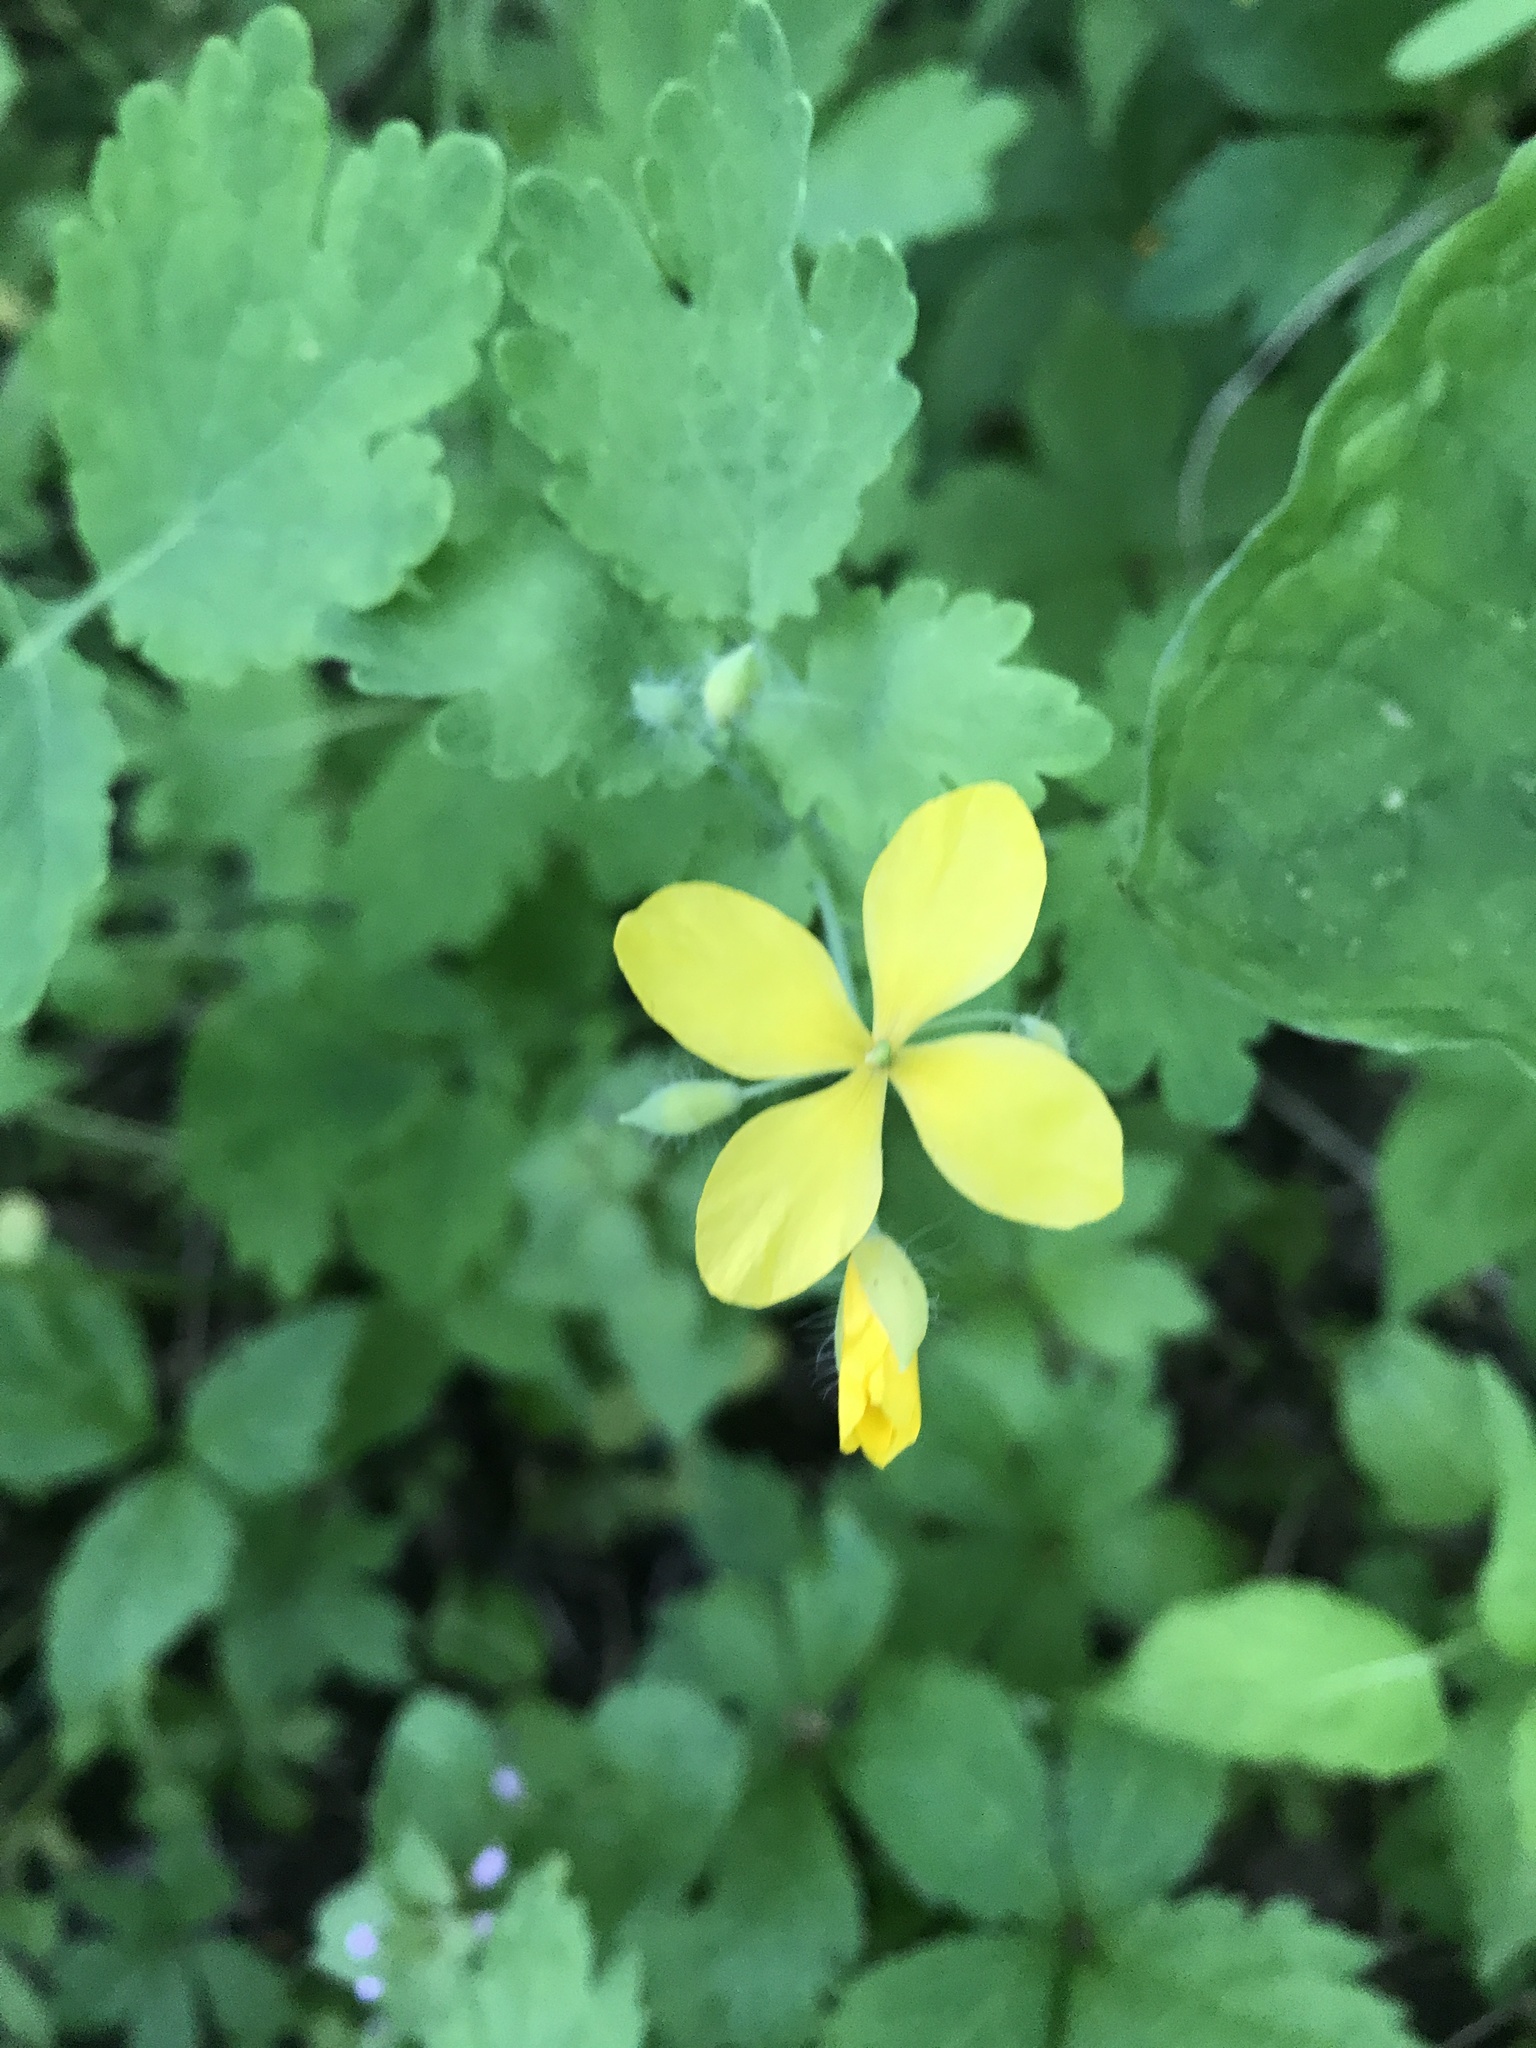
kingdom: Plantae
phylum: Tracheophyta
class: Magnoliopsida
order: Ranunculales
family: Papaveraceae
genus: Chelidonium
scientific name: Chelidonium majus
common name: Greater celandine
